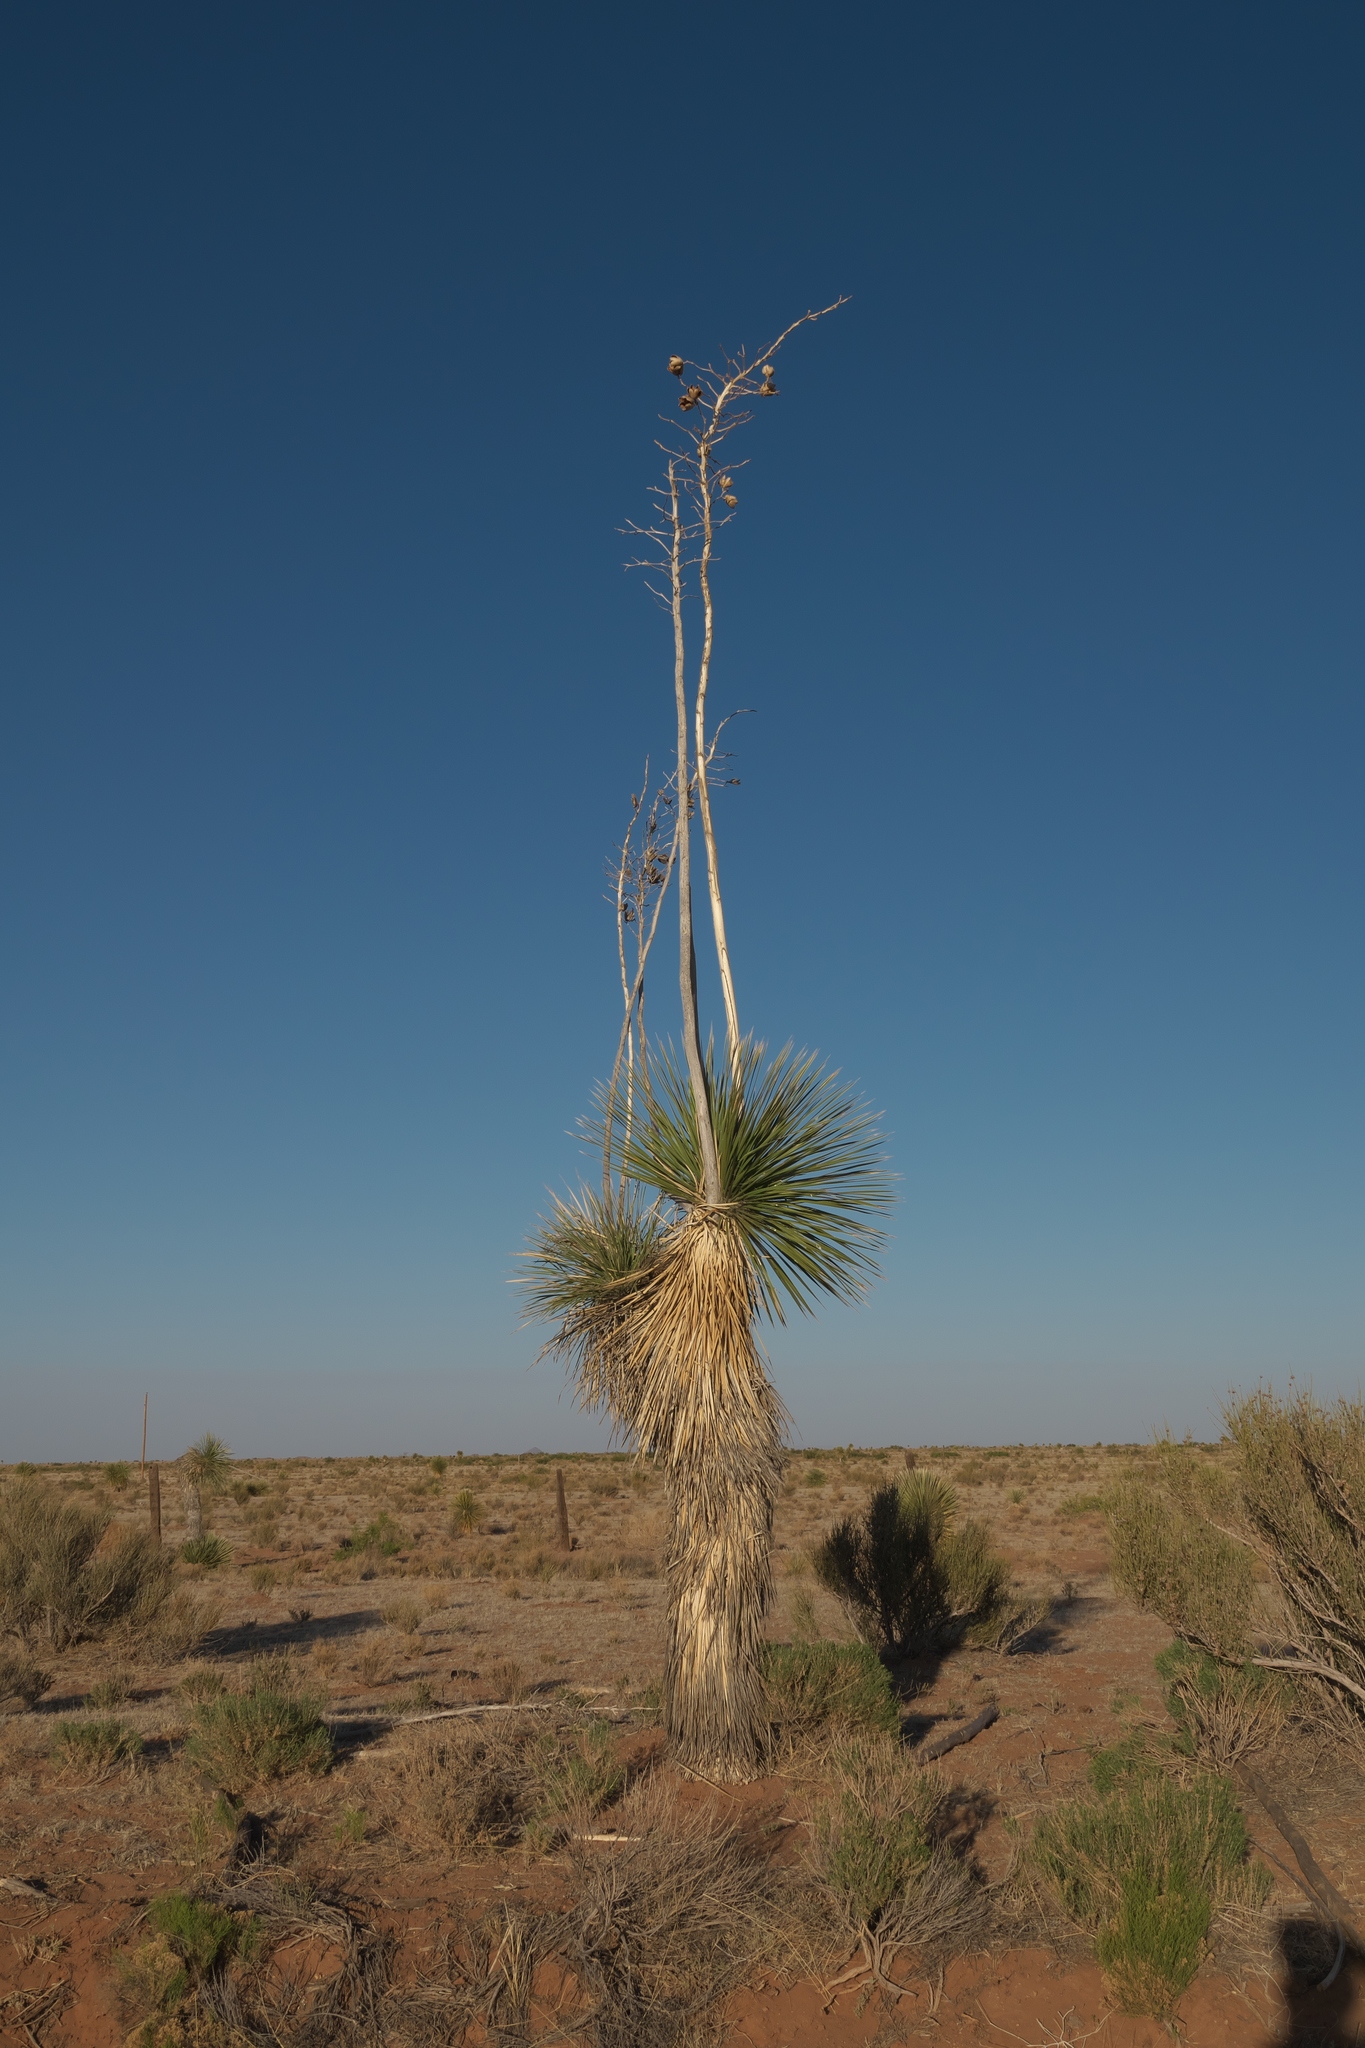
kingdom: Plantae
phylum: Tracheophyta
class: Liliopsida
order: Asparagales
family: Asparagaceae
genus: Yucca
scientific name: Yucca elata
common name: Palmella
